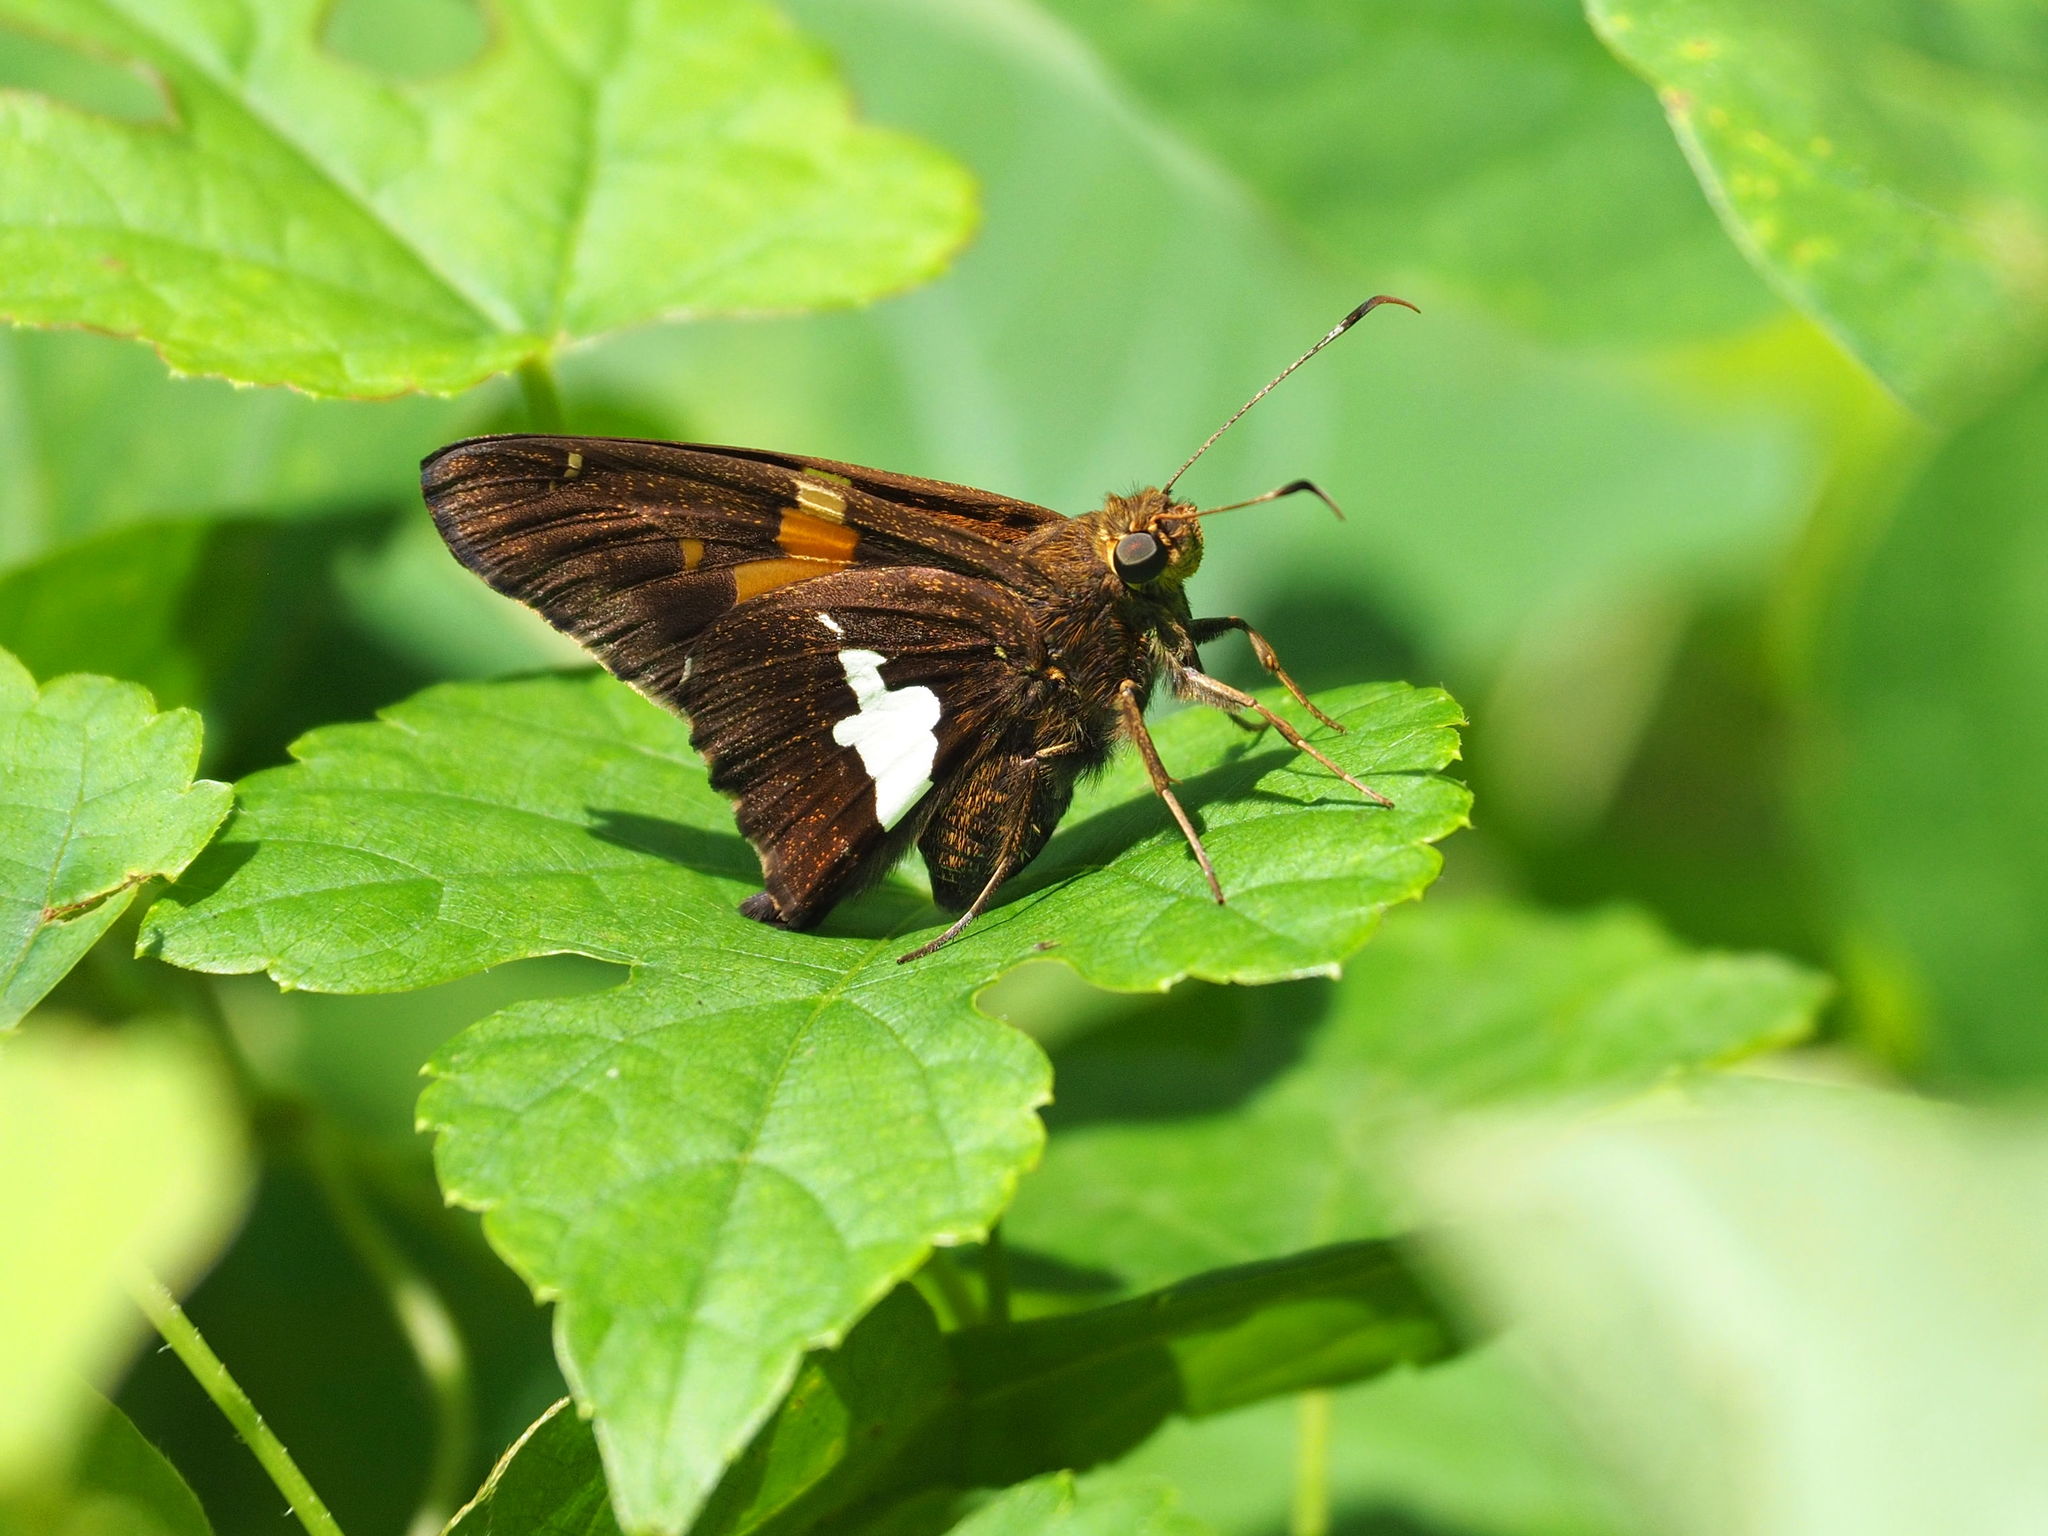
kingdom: Animalia
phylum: Arthropoda
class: Insecta
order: Lepidoptera
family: Hesperiidae
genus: Epargyreus
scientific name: Epargyreus clarus
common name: Silver-spotted skipper
